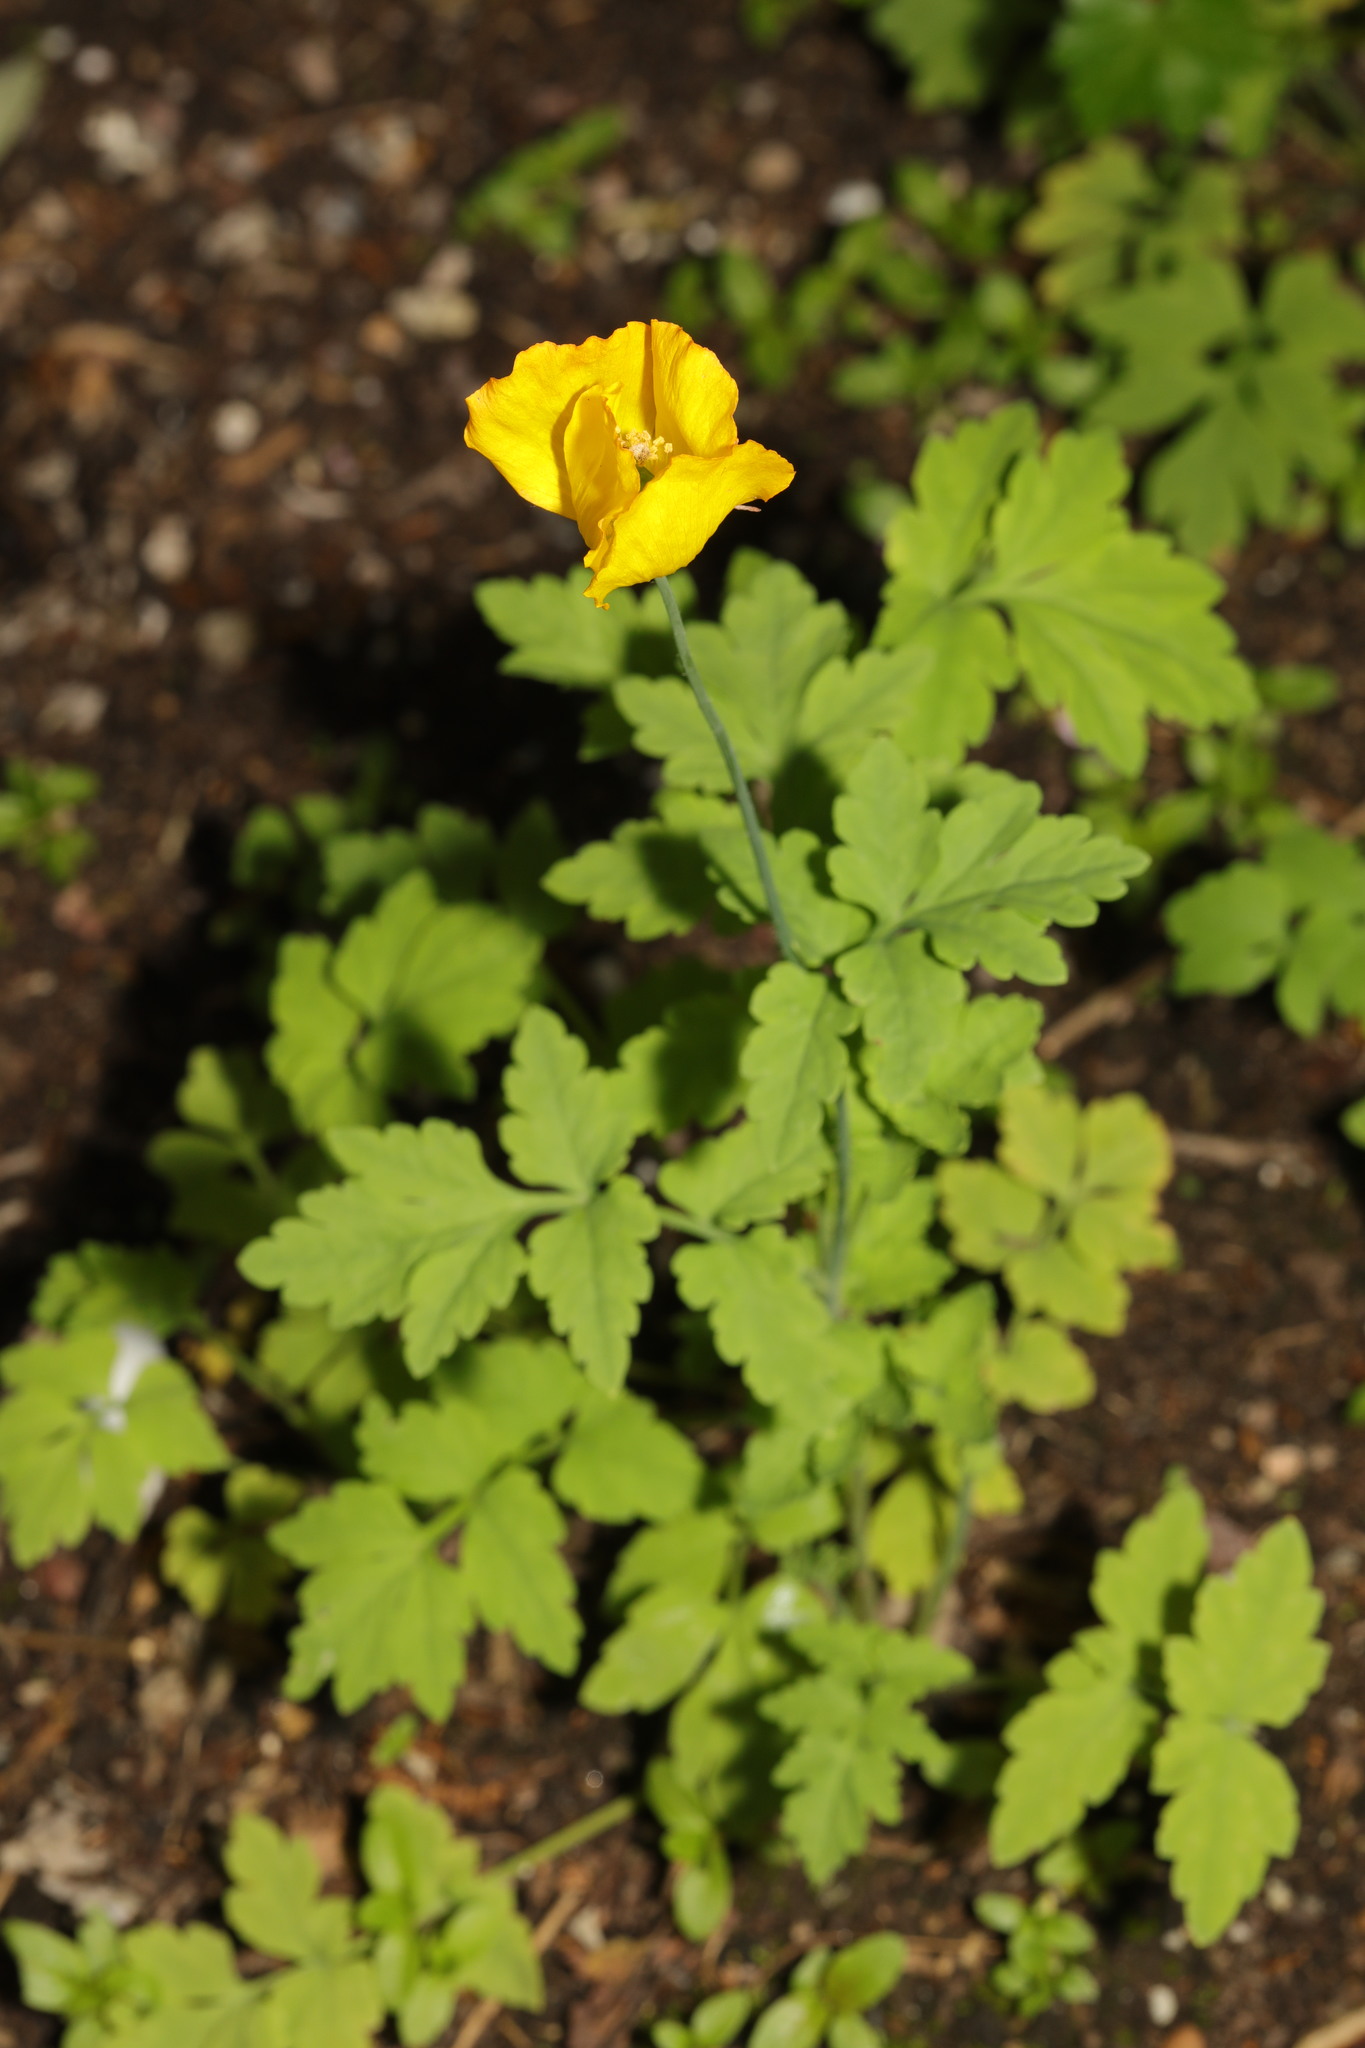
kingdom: Plantae
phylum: Tracheophyta
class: Magnoliopsida
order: Ranunculales
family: Papaveraceae
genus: Papaver
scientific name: Papaver cambricum
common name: Poppy
